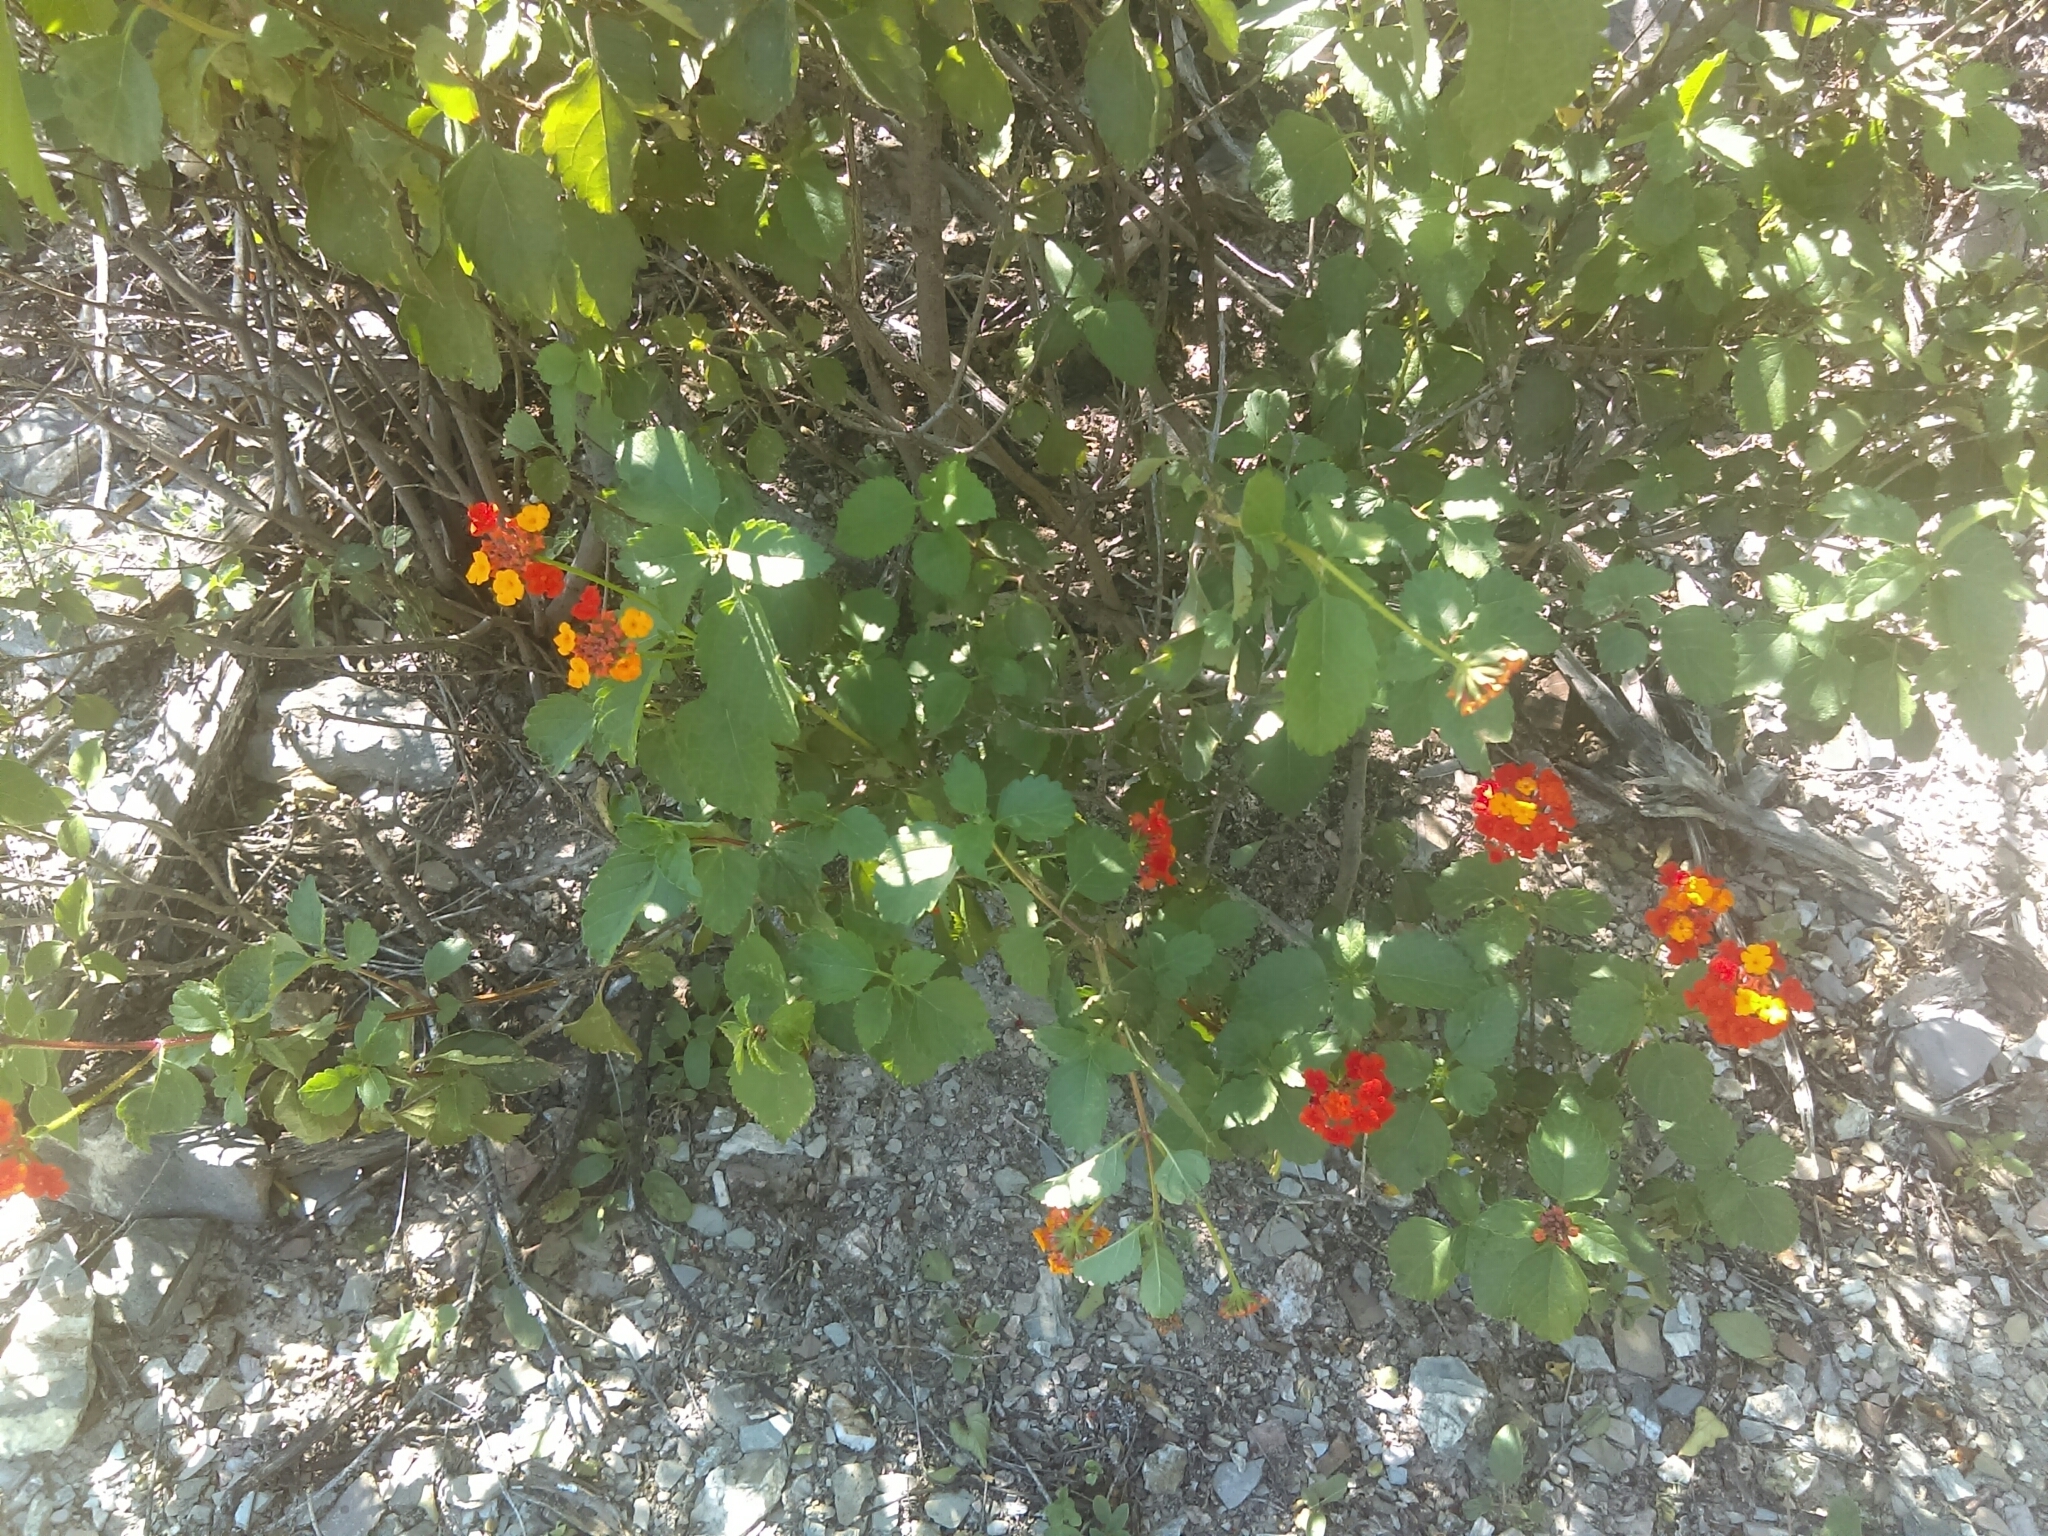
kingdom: Plantae
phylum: Tracheophyta
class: Magnoliopsida
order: Lamiales
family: Verbenaceae
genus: Lantana
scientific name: Lantana camara
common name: Lantana
